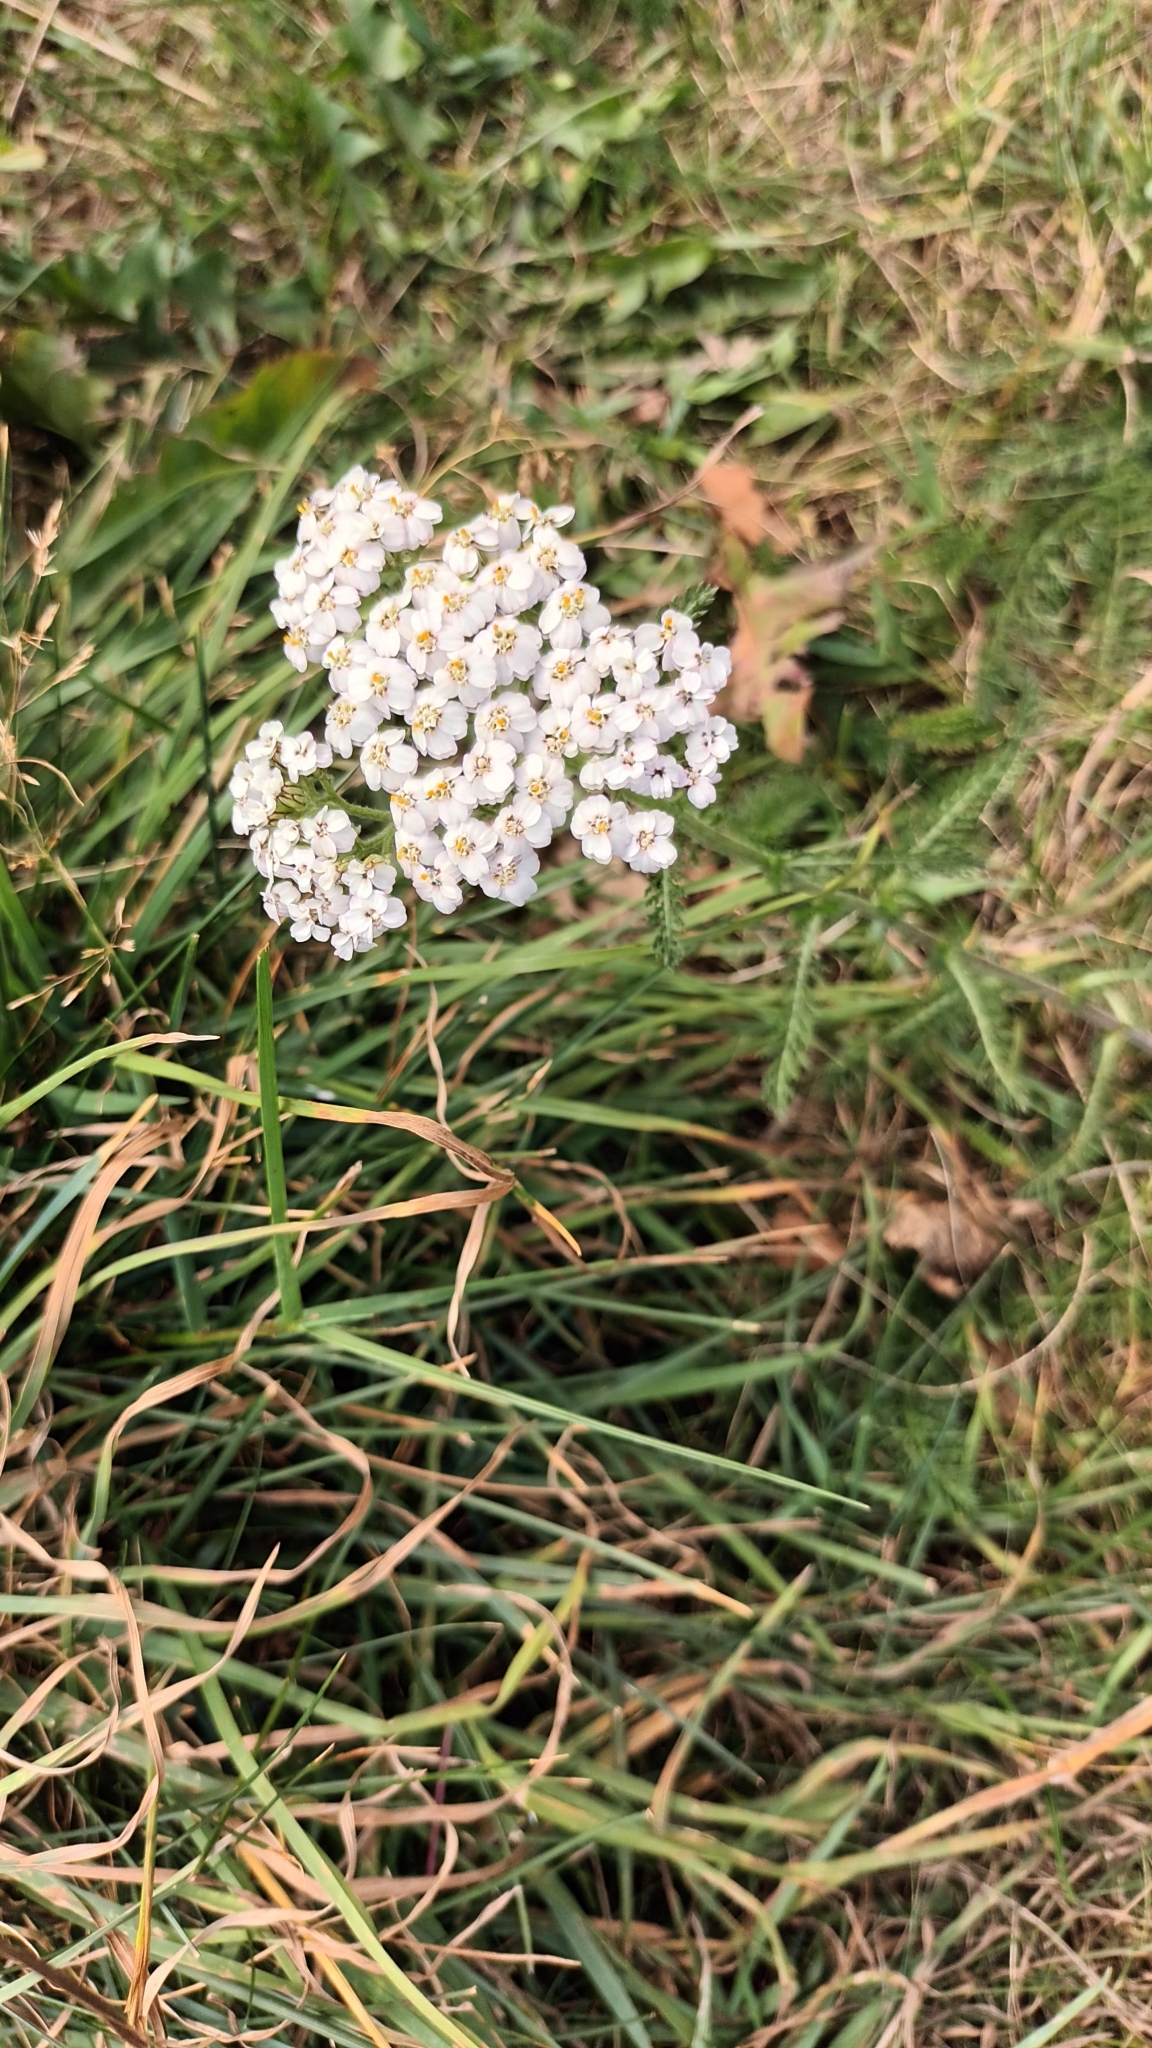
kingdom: Plantae
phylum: Tracheophyta
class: Magnoliopsida
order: Asterales
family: Asteraceae
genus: Achillea
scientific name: Achillea millefolium
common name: Yarrow
